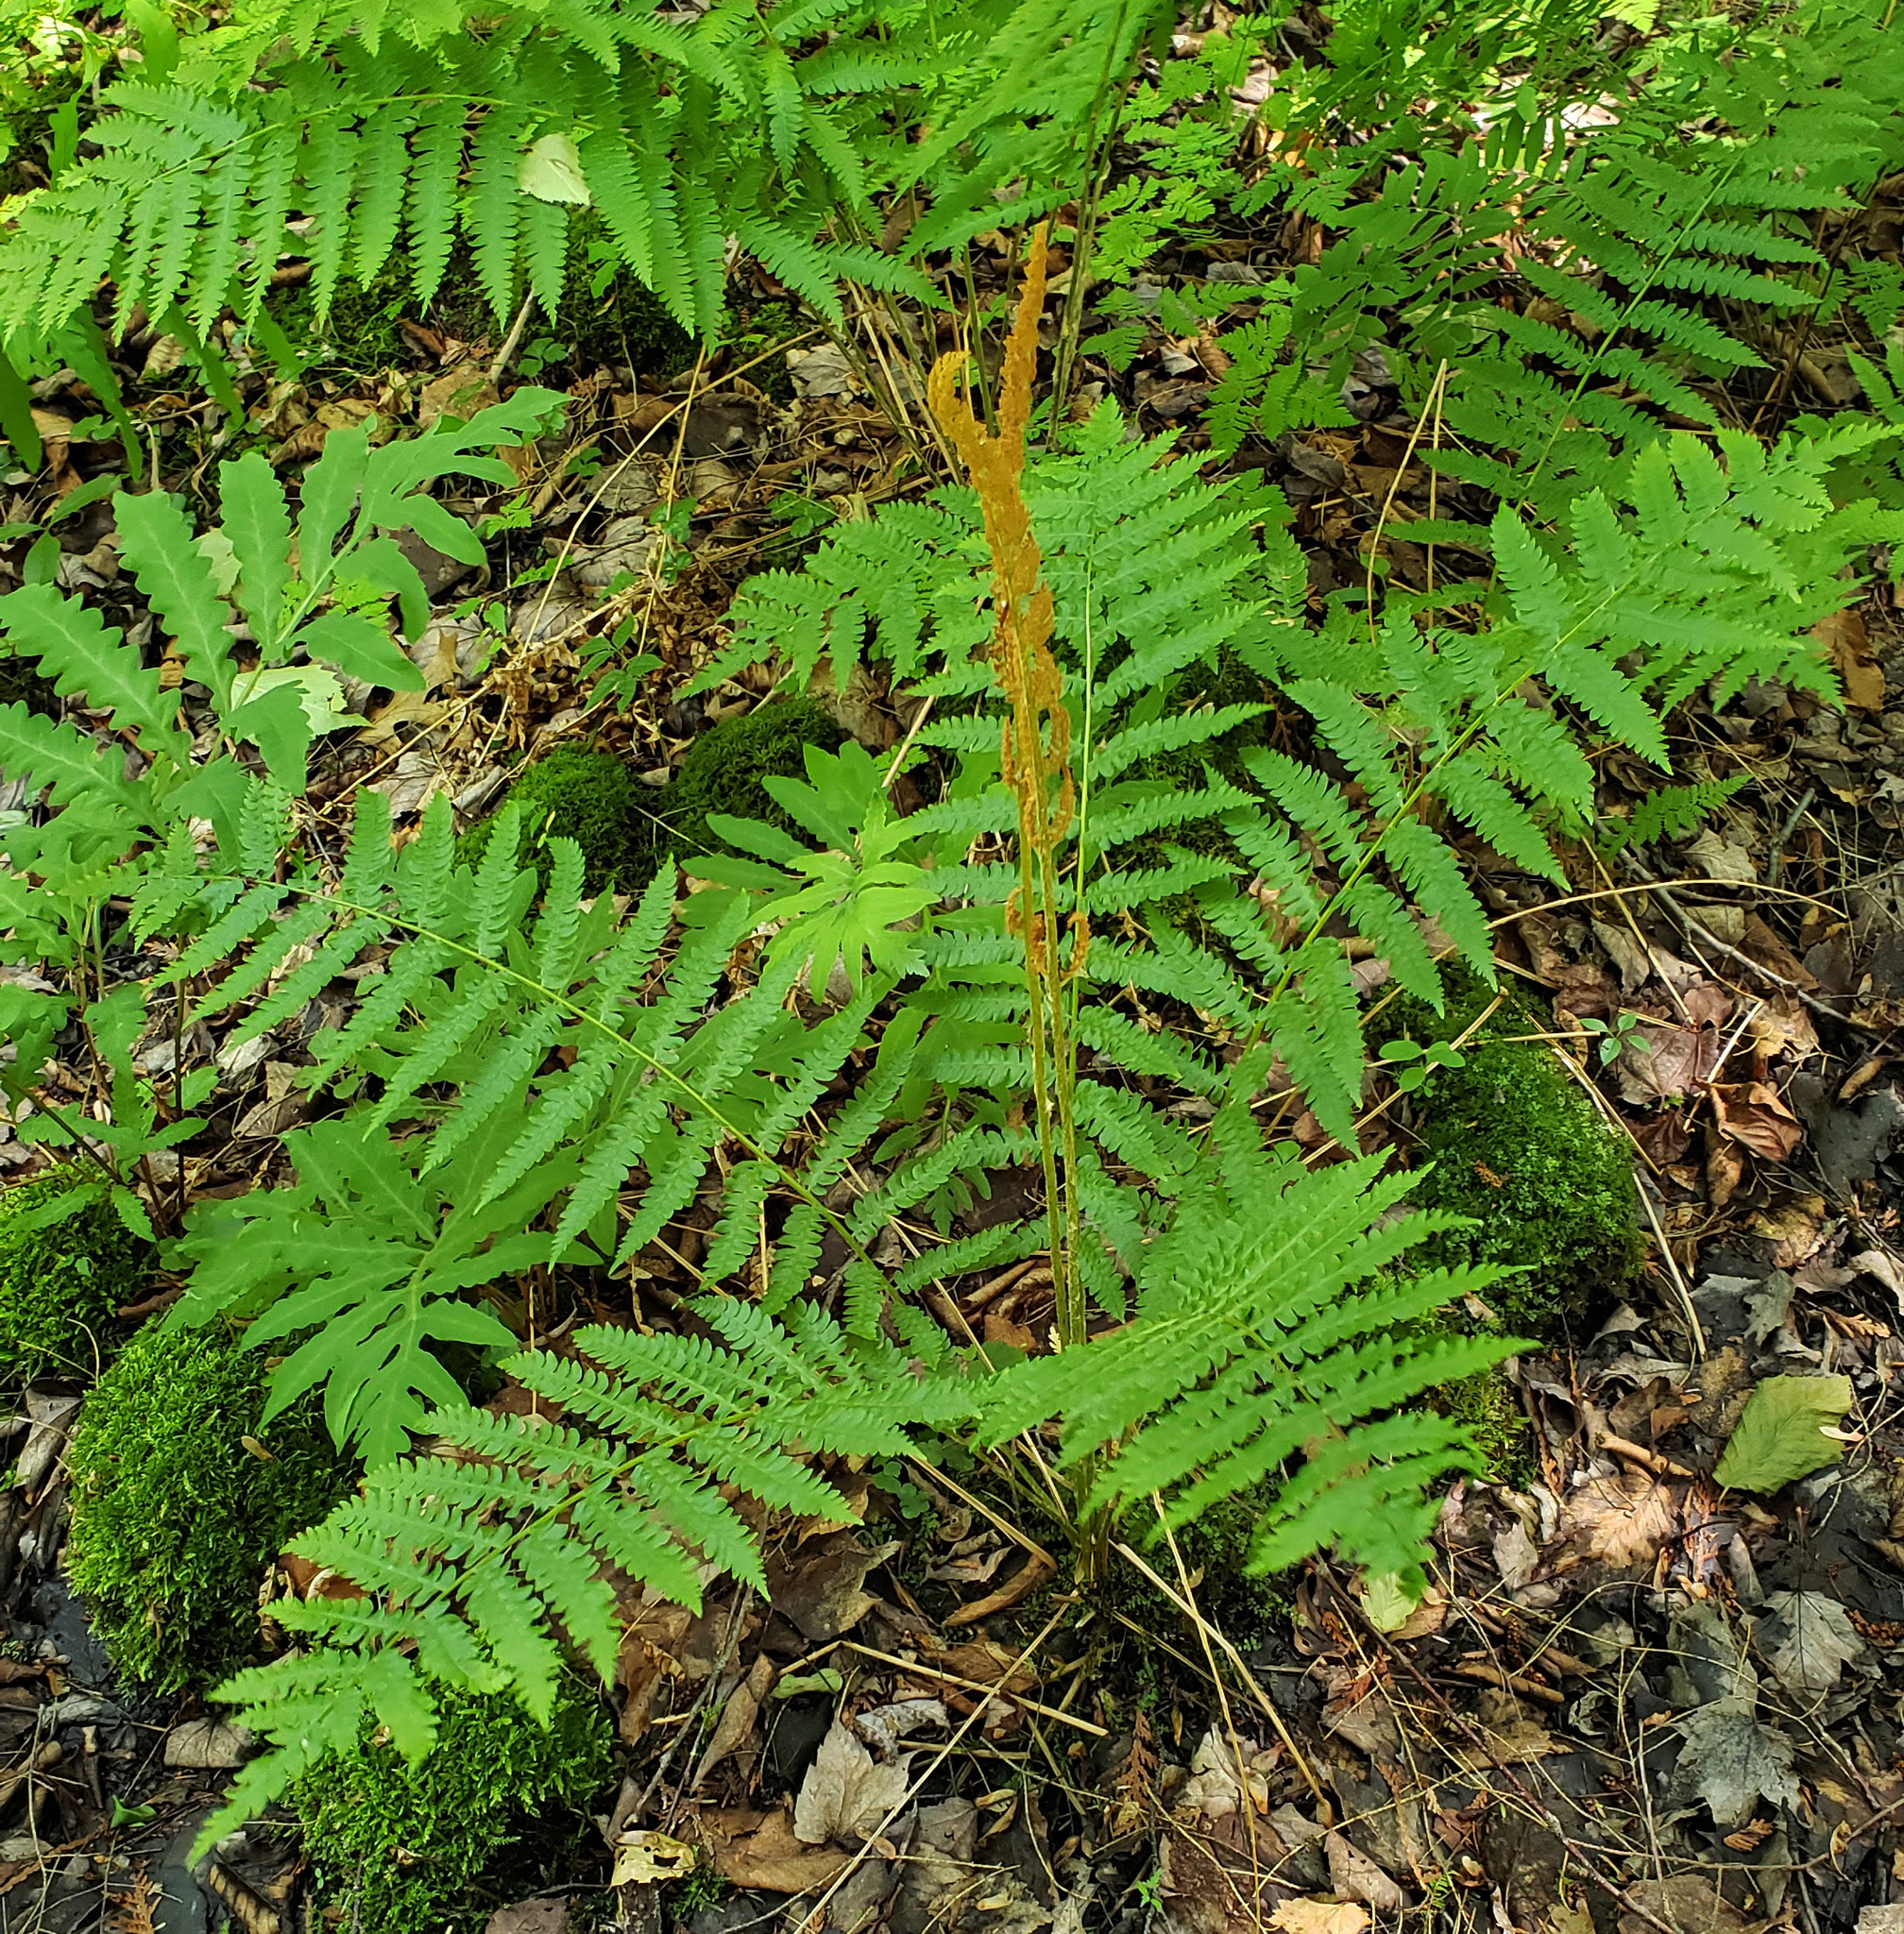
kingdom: Plantae
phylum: Tracheophyta
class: Polypodiopsida
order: Osmundales
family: Osmundaceae
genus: Osmundastrum
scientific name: Osmundastrum cinnamomeum
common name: Cinnamon fern
